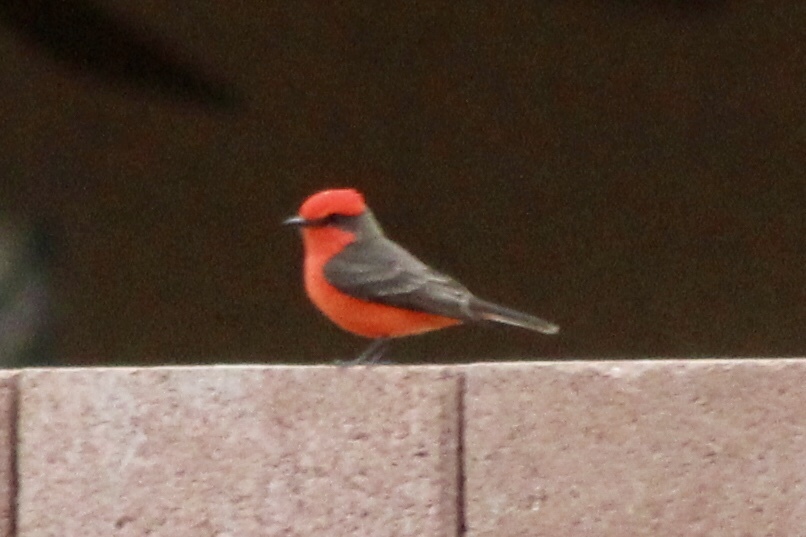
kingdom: Animalia
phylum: Chordata
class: Aves
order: Passeriformes
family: Tyrannidae
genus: Pyrocephalus
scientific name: Pyrocephalus rubinus
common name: Vermilion flycatcher
